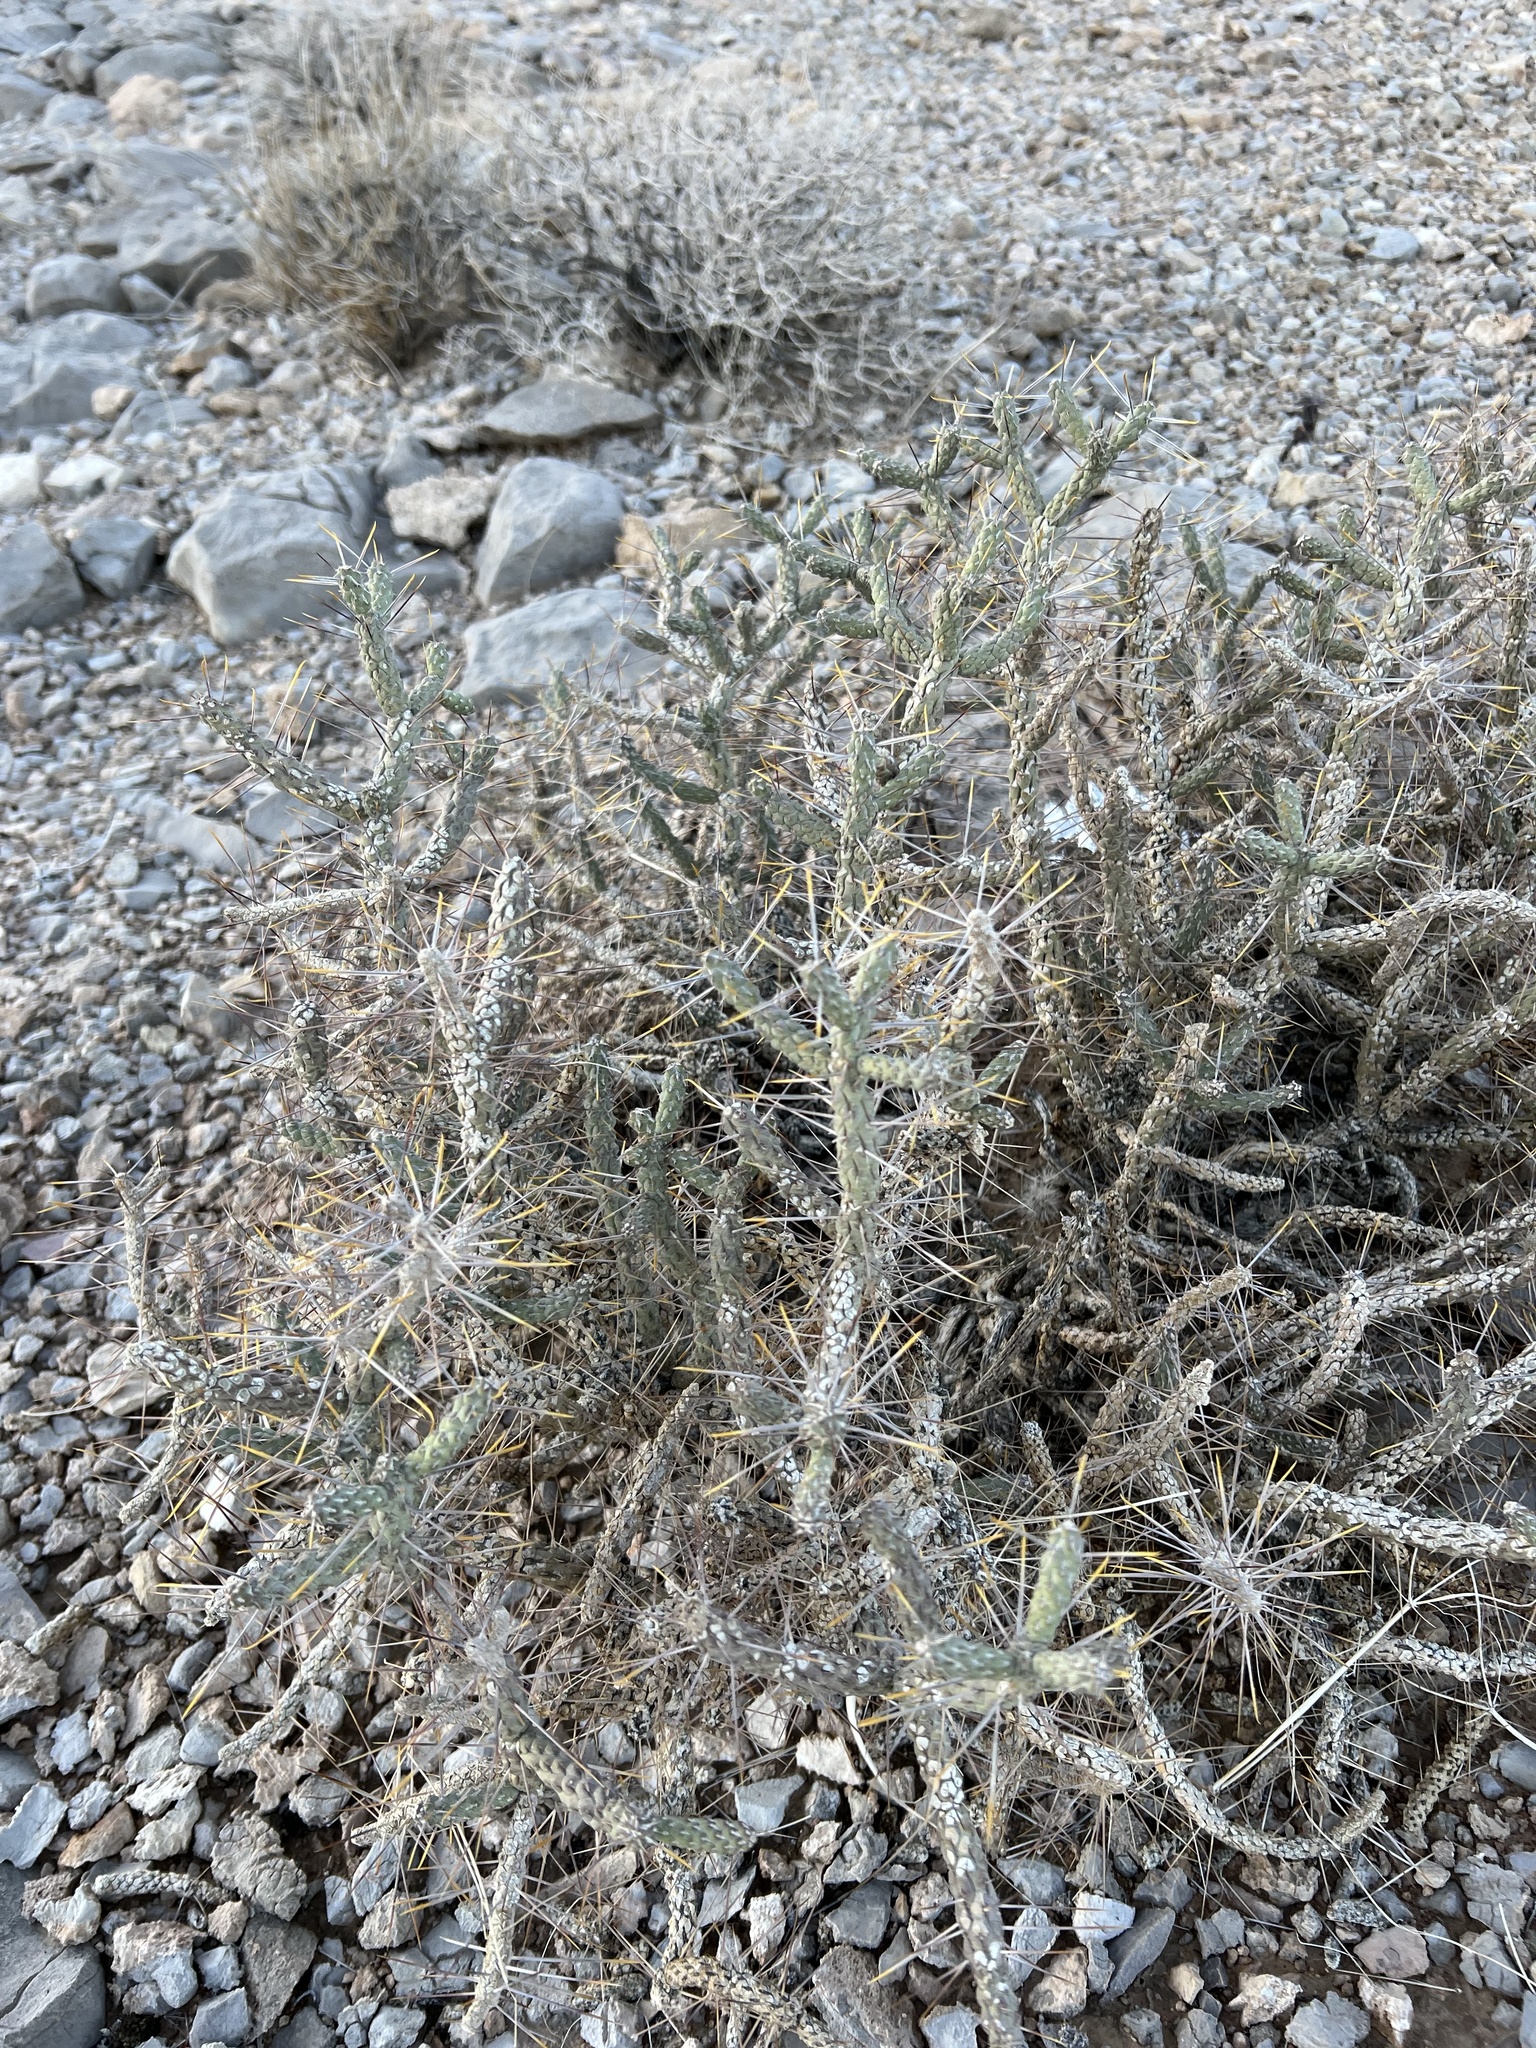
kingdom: Plantae
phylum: Tracheophyta
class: Magnoliopsida
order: Caryophyllales
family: Cactaceae
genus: Cylindropuntia
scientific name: Cylindropuntia ramosissima
